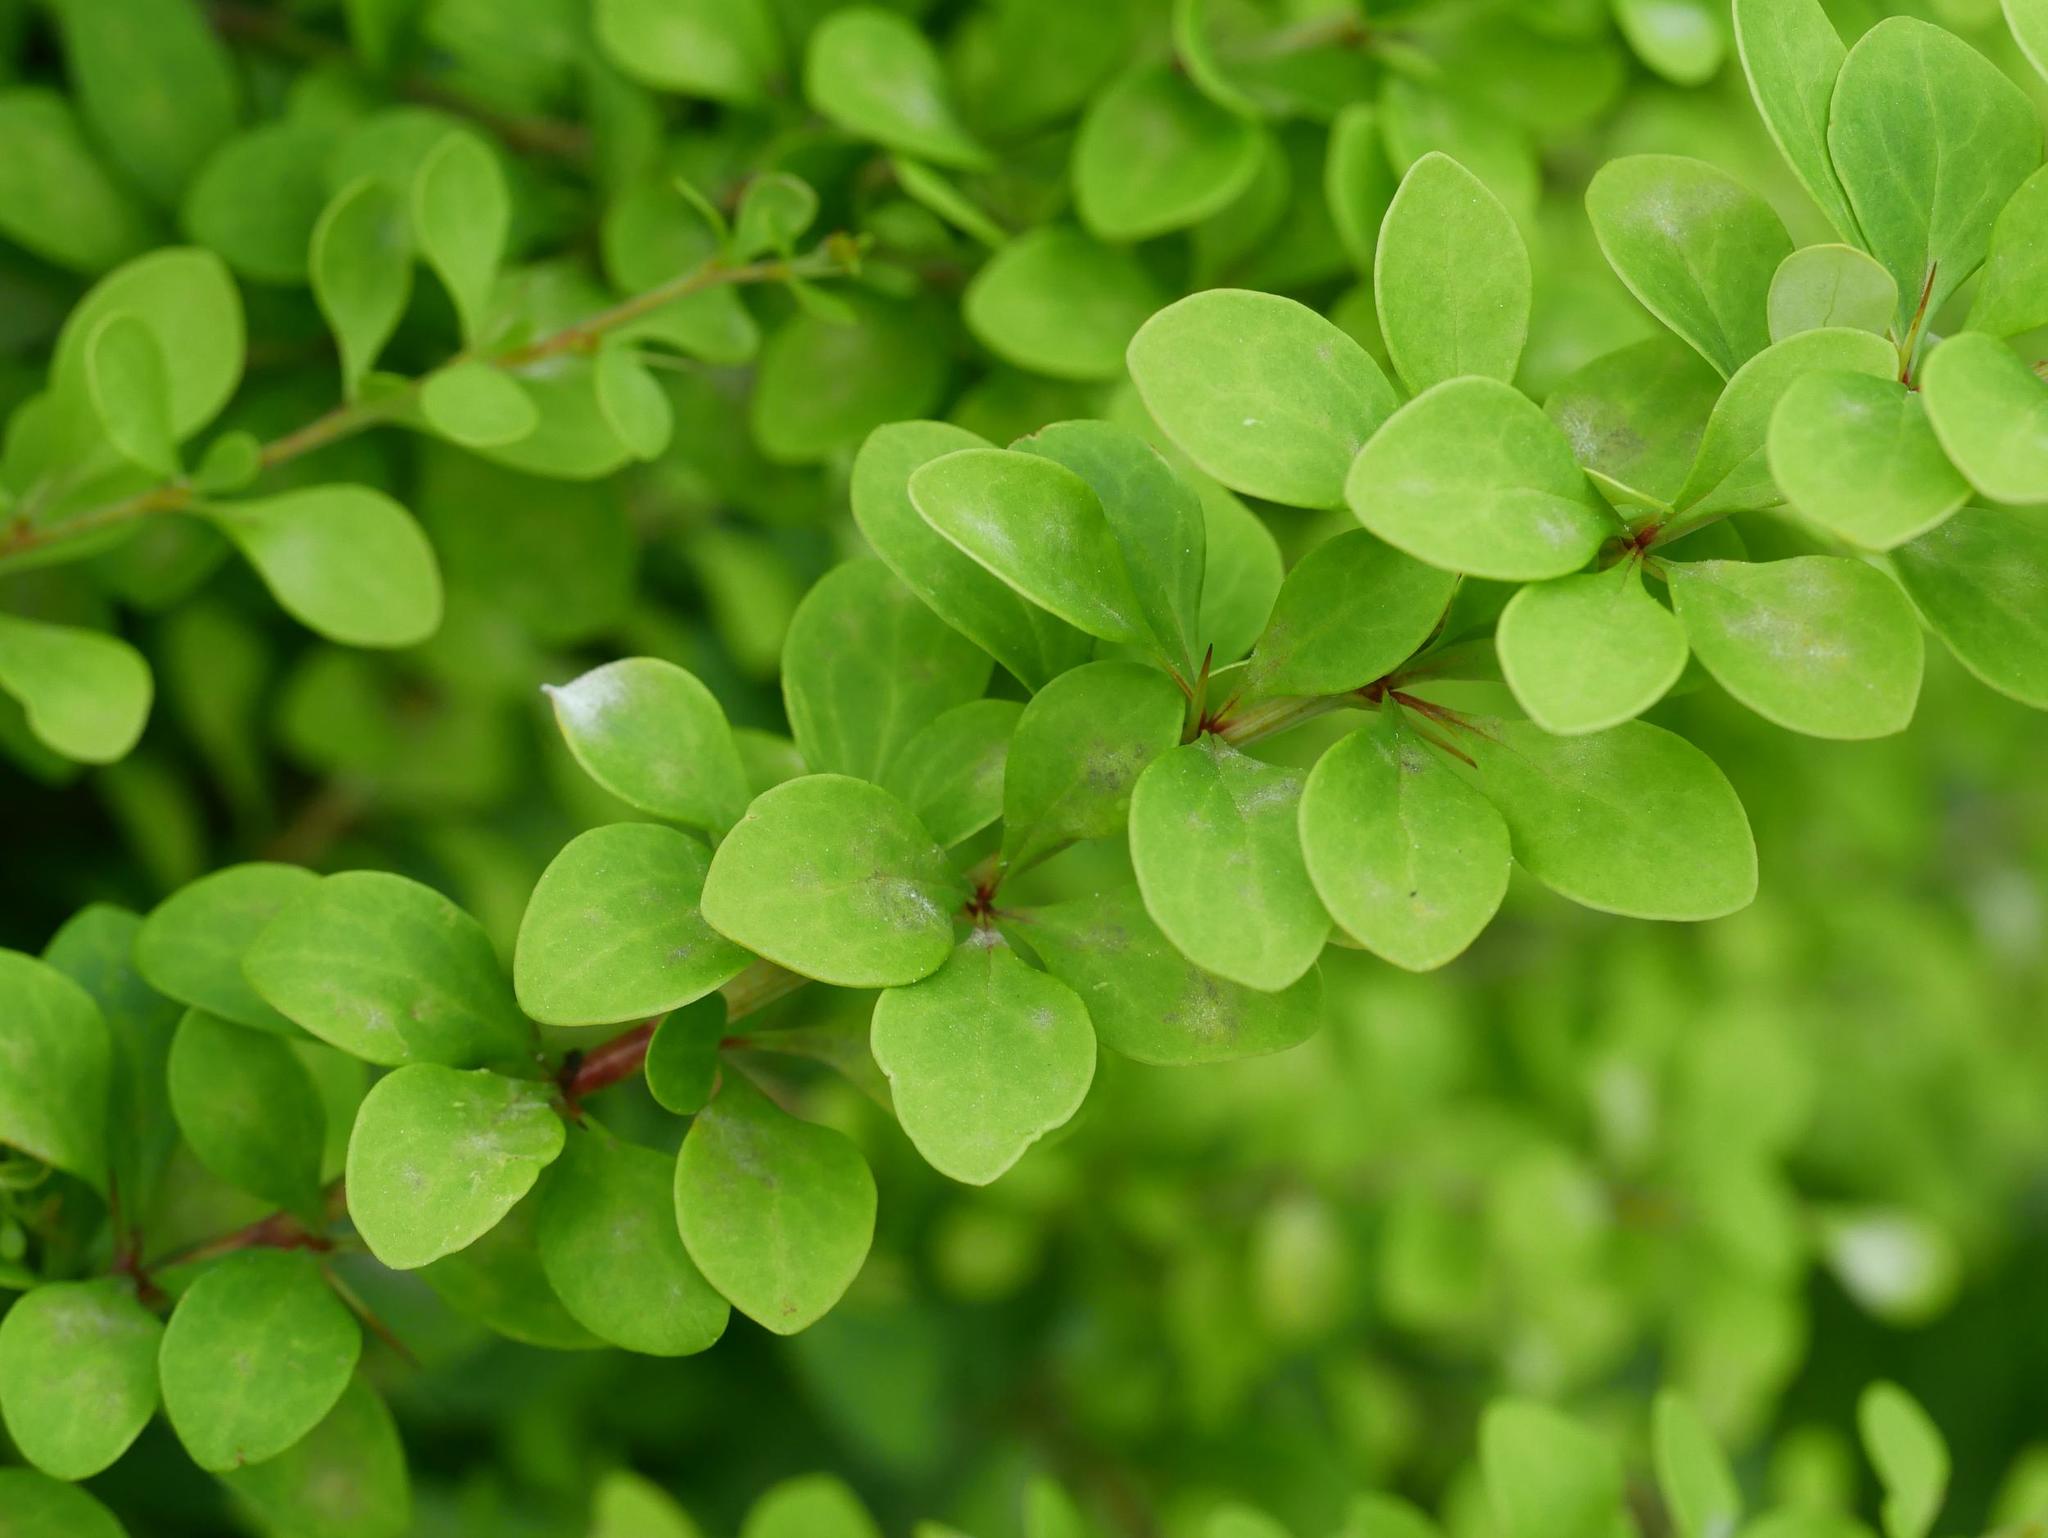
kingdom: Plantae
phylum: Tracheophyta
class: Magnoliopsida
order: Ranunculales
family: Berberidaceae
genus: Berberis
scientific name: Berberis thunbergii
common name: Japanese barberry
